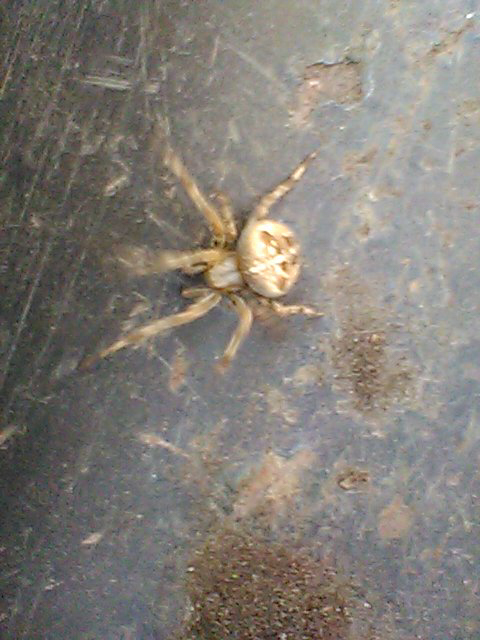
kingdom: Animalia
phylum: Arthropoda
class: Arachnida
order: Araneae
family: Araneidae
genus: Araneus
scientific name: Araneus diadematus
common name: Cross orbweaver
